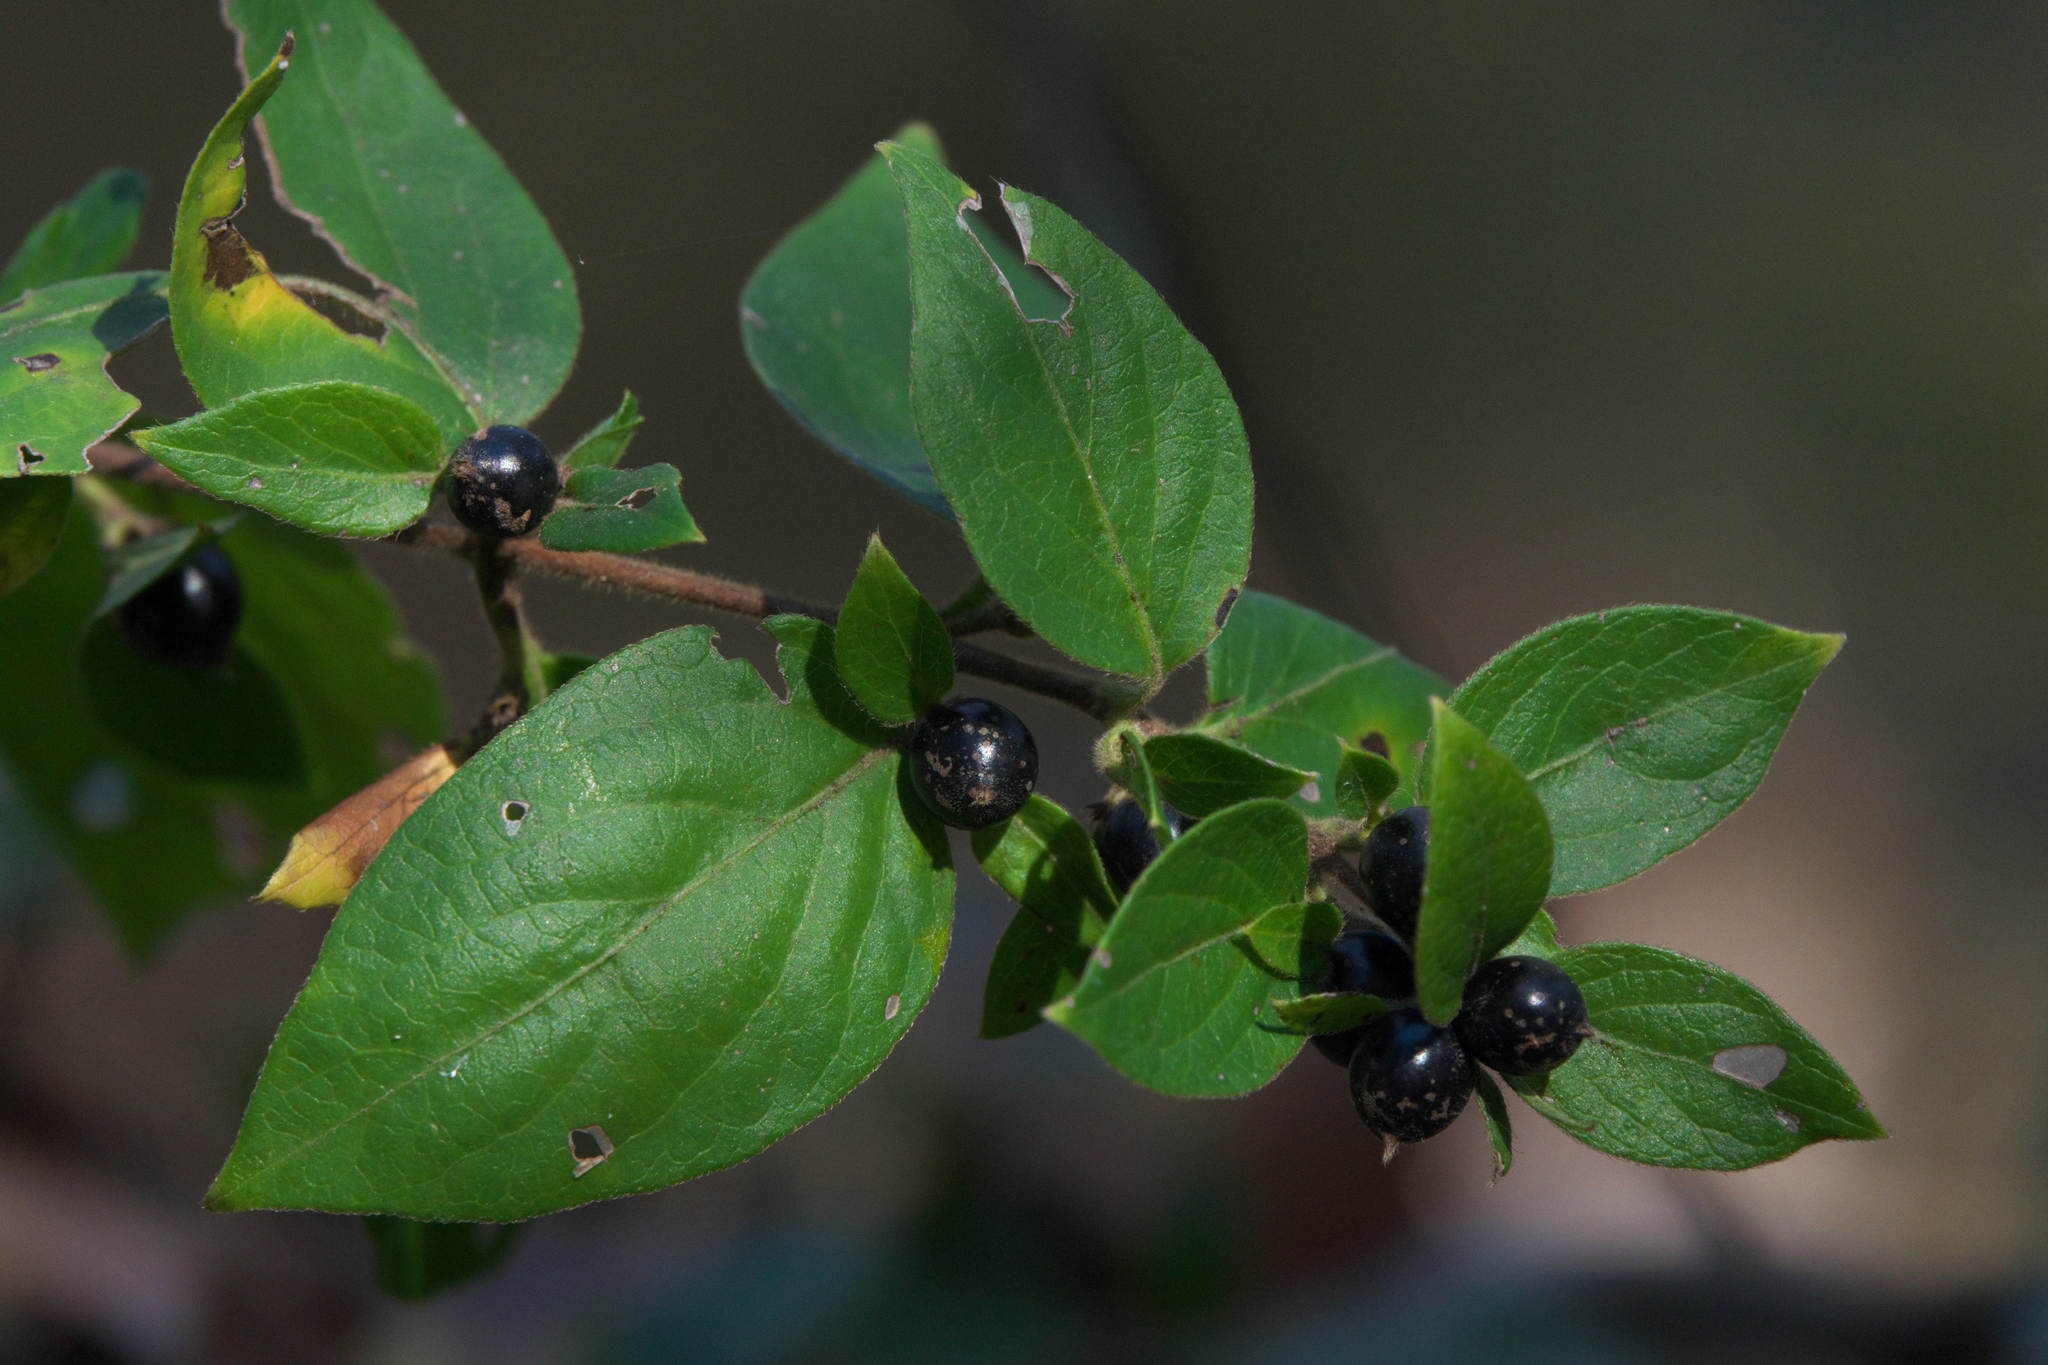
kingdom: Plantae
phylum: Tracheophyta
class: Magnoliopsida
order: Dipsacales
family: Caprifoliaceae
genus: Lonicera
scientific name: Lonicera japonica
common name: Japanese honeysuckle
